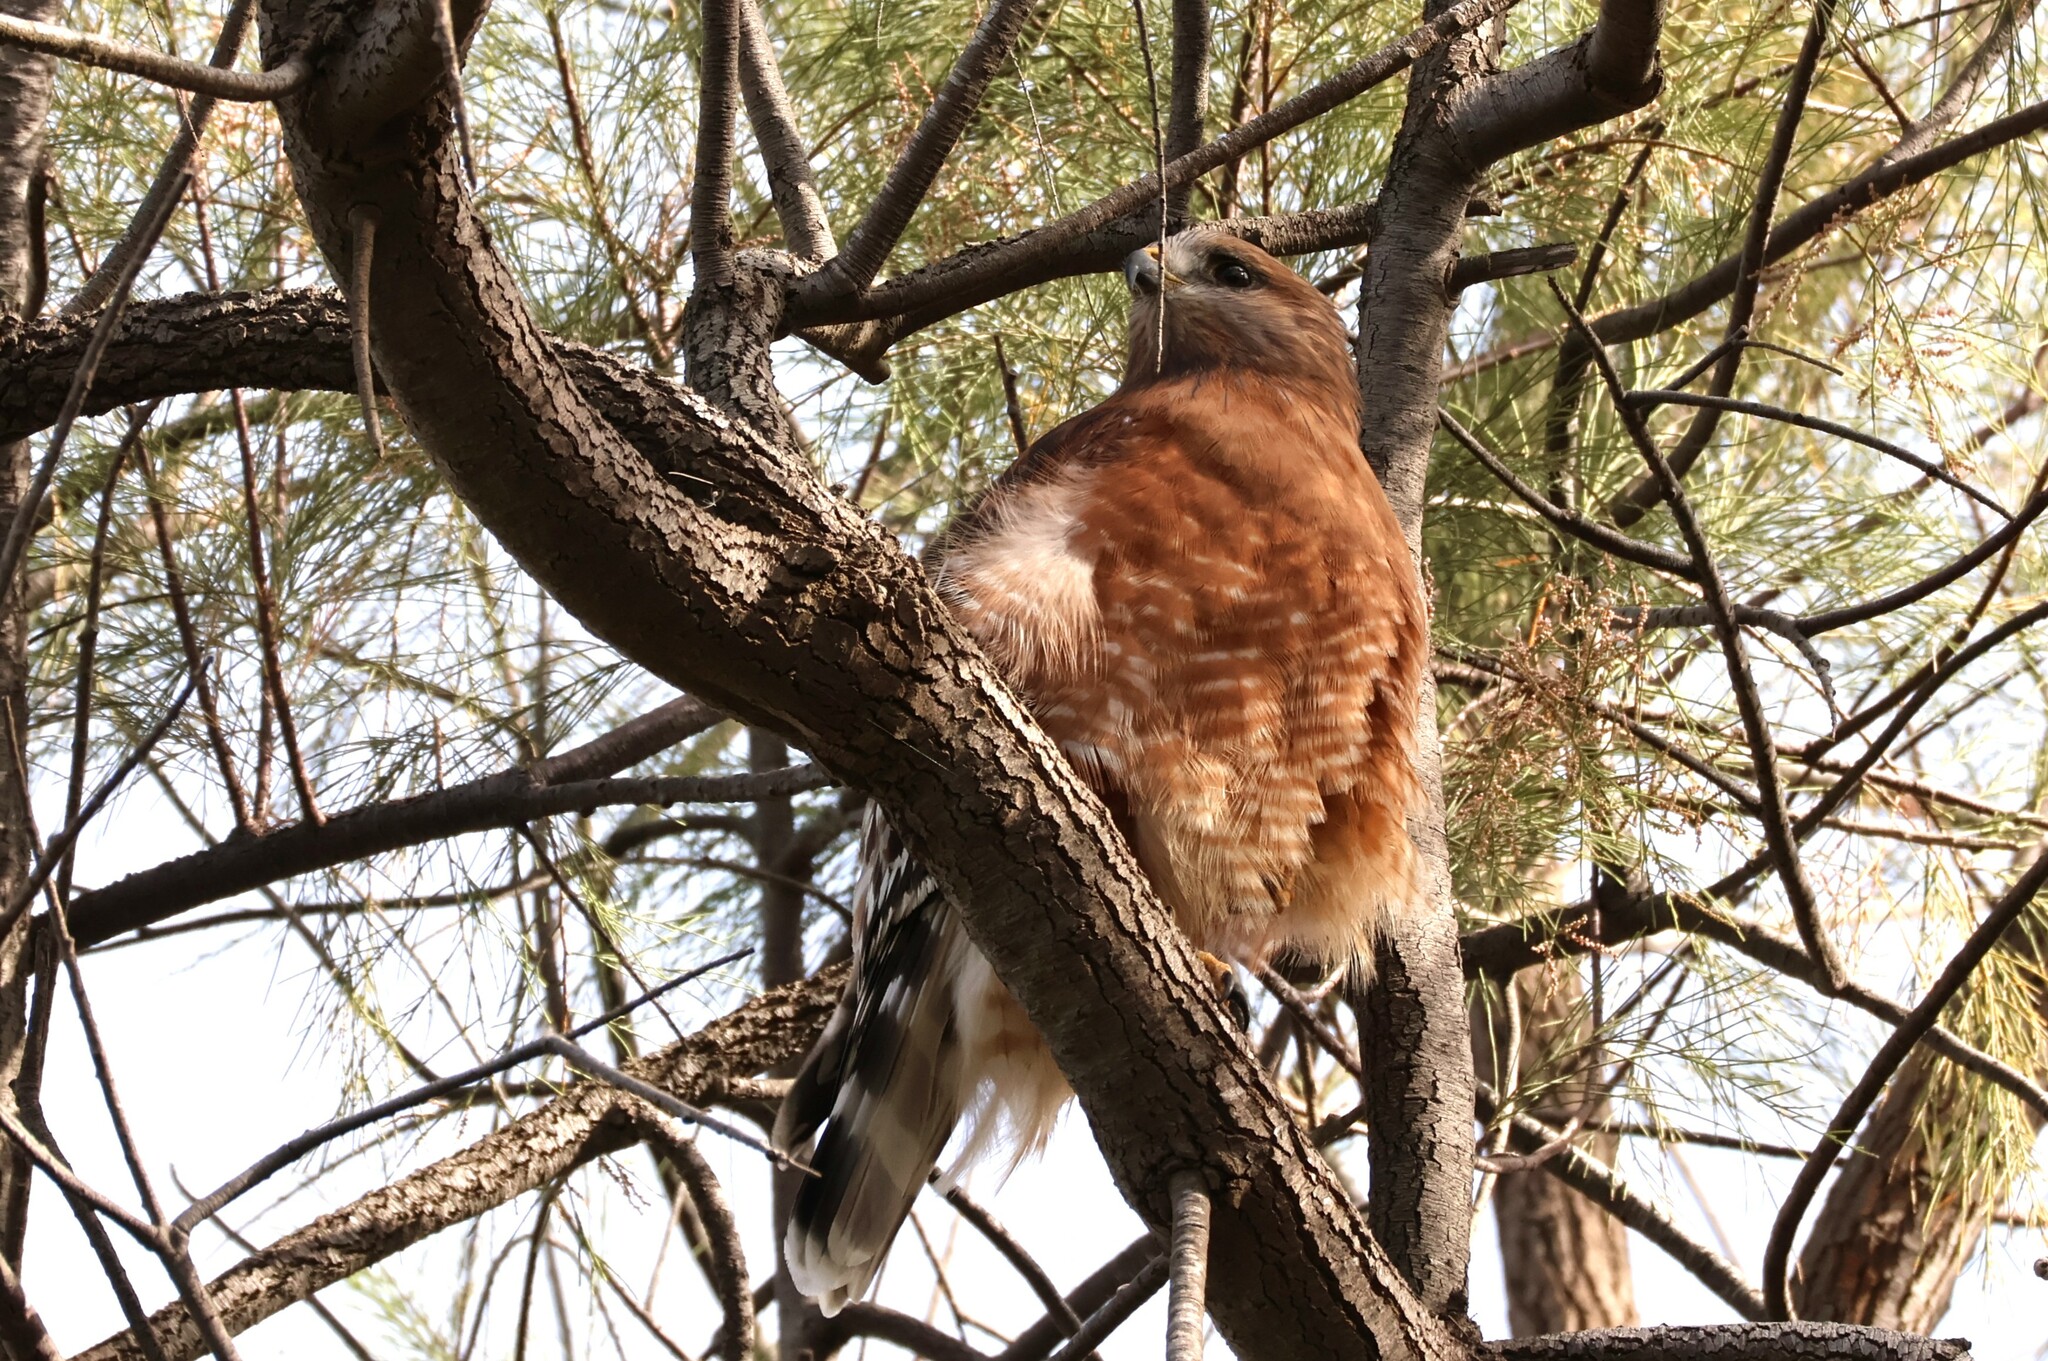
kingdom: Animalia
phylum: Chordata
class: Aves
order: Accipitriformes
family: Accipitridae
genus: Buteo
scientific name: Buteo lineatus
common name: Red-shouldered hawk
